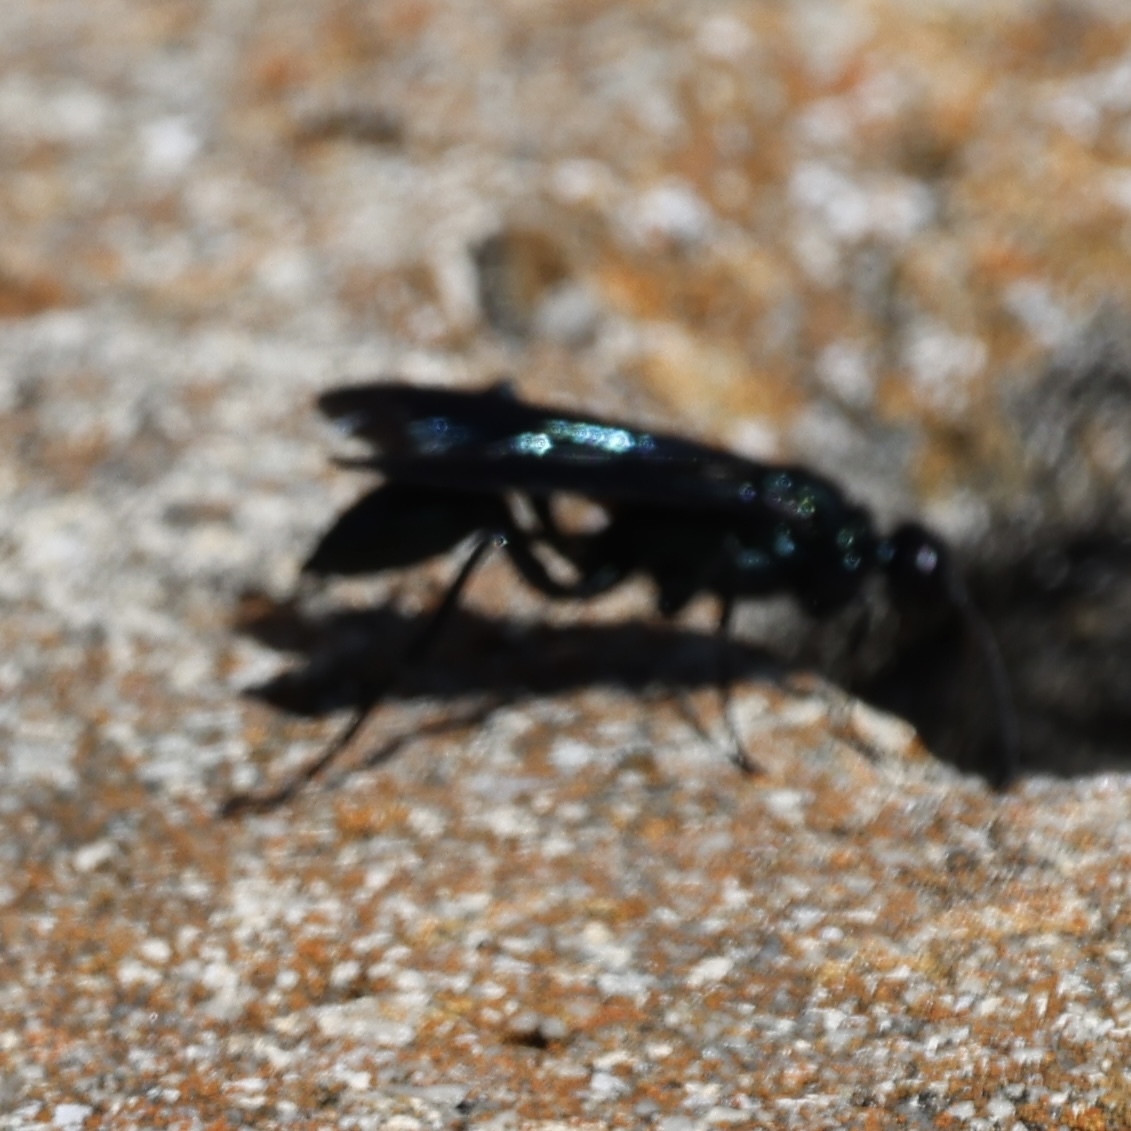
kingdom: Animalia
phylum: Arthropoda
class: Insecta
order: Hymenoptera
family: Sphecidae
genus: Chalybion
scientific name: Chalybion californicum
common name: Mud dauber
